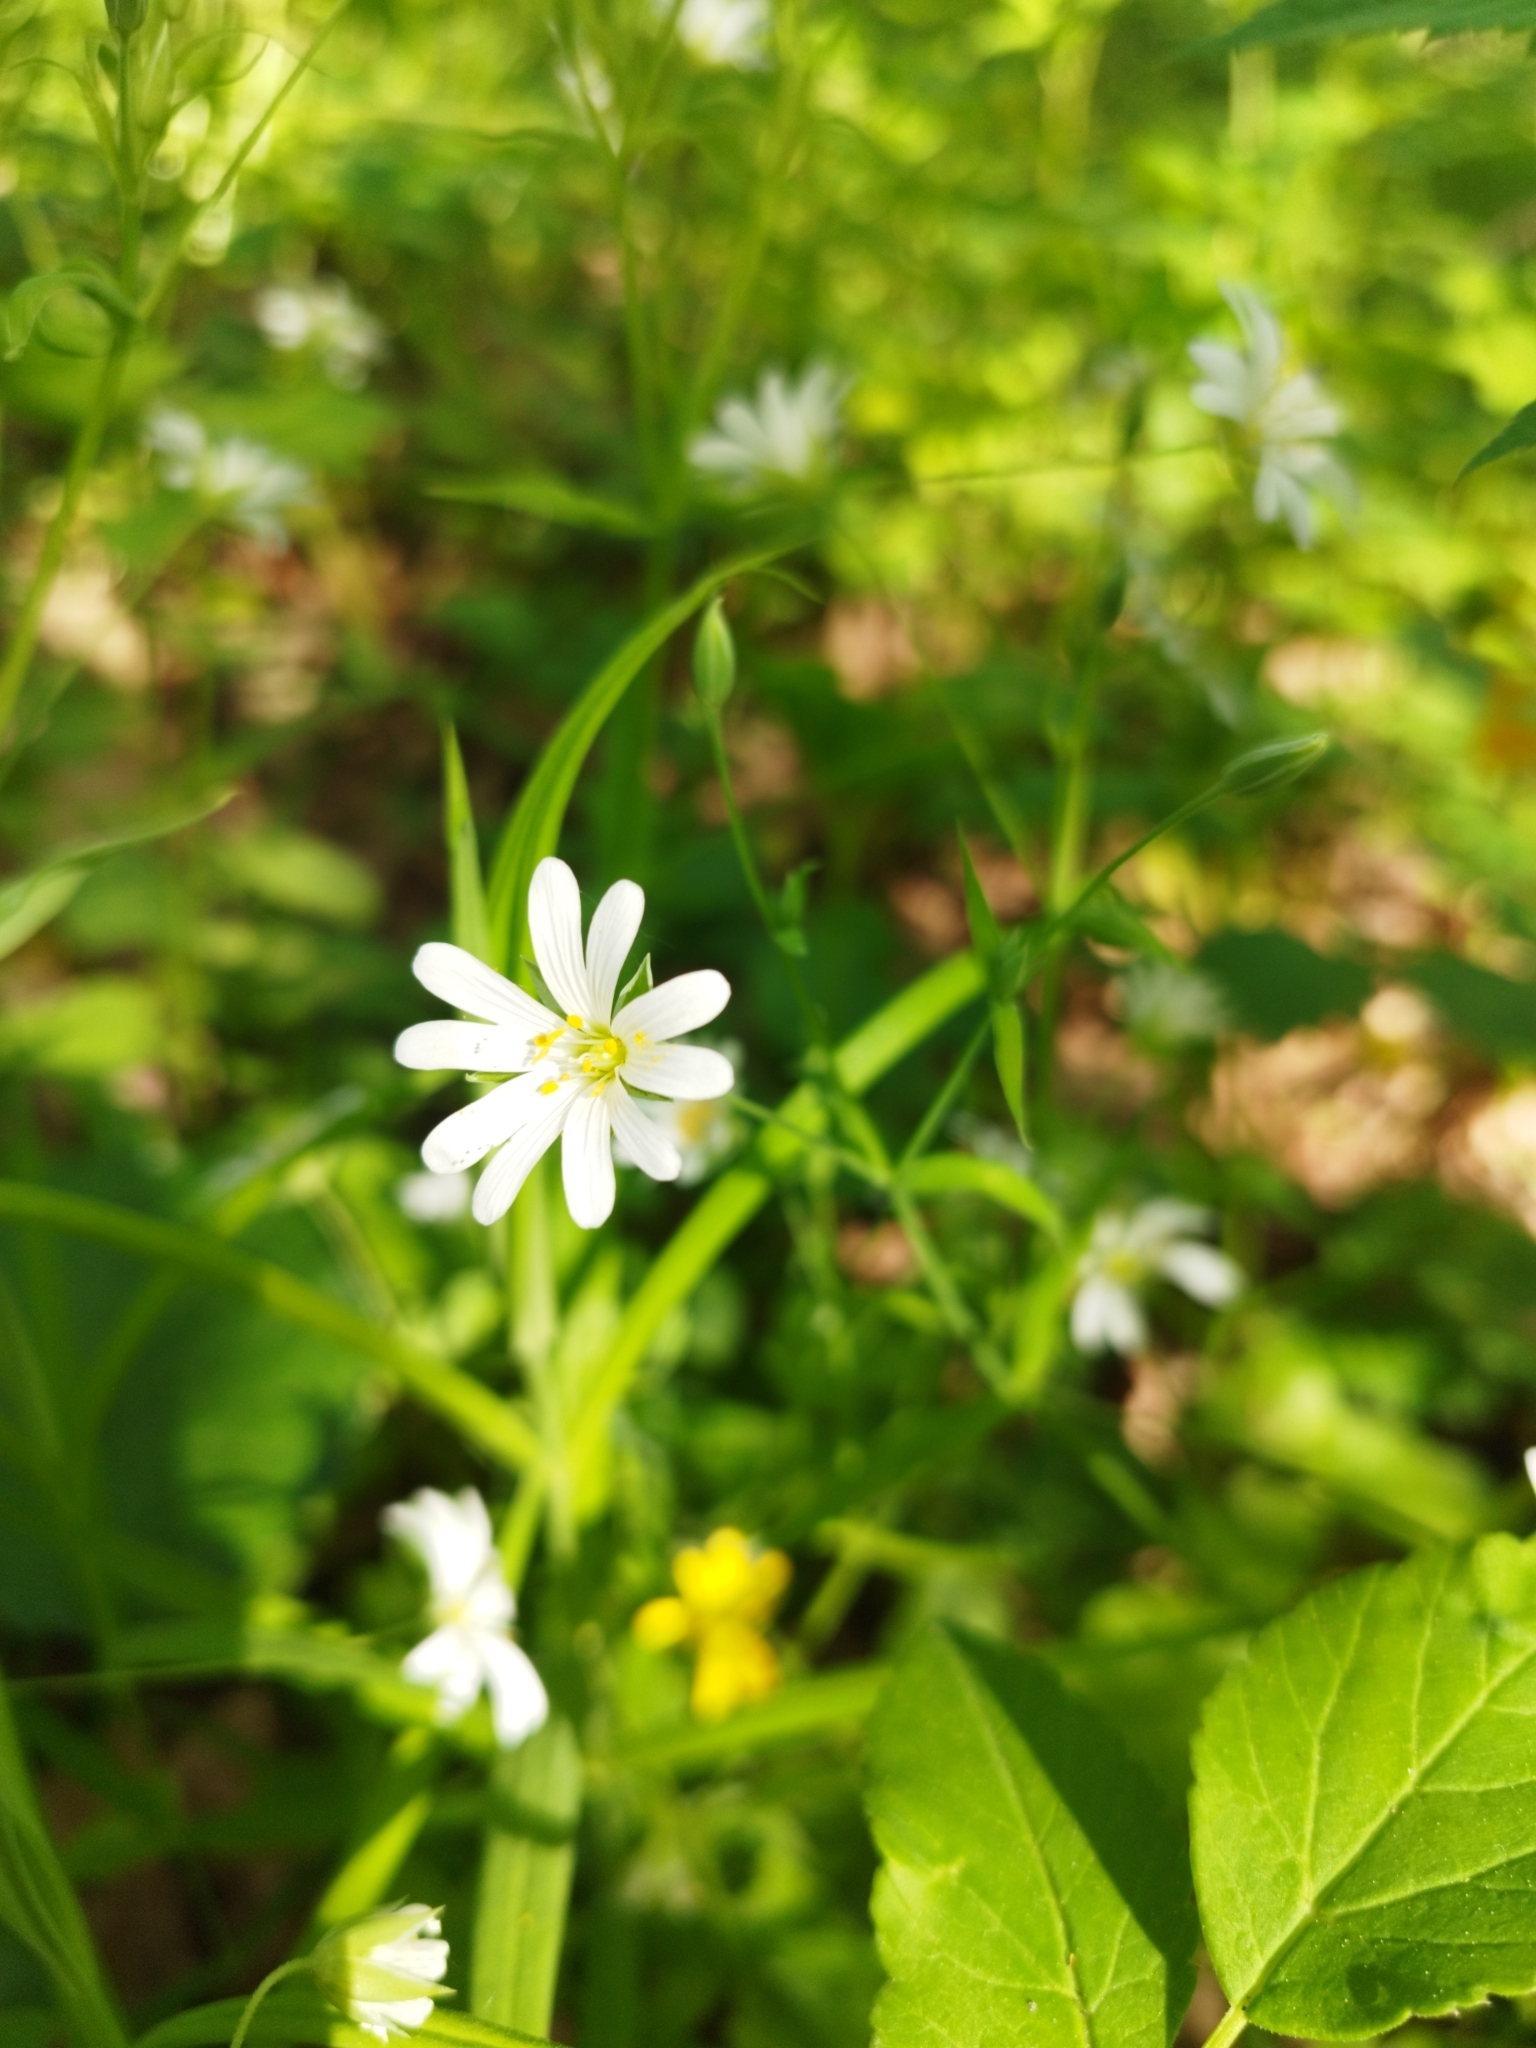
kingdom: Plantae
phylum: Tracheophyta
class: Magnoliopsida
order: Caryophyllales
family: Caryophyllaceae
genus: Rabelera
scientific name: Rabelera holostea
